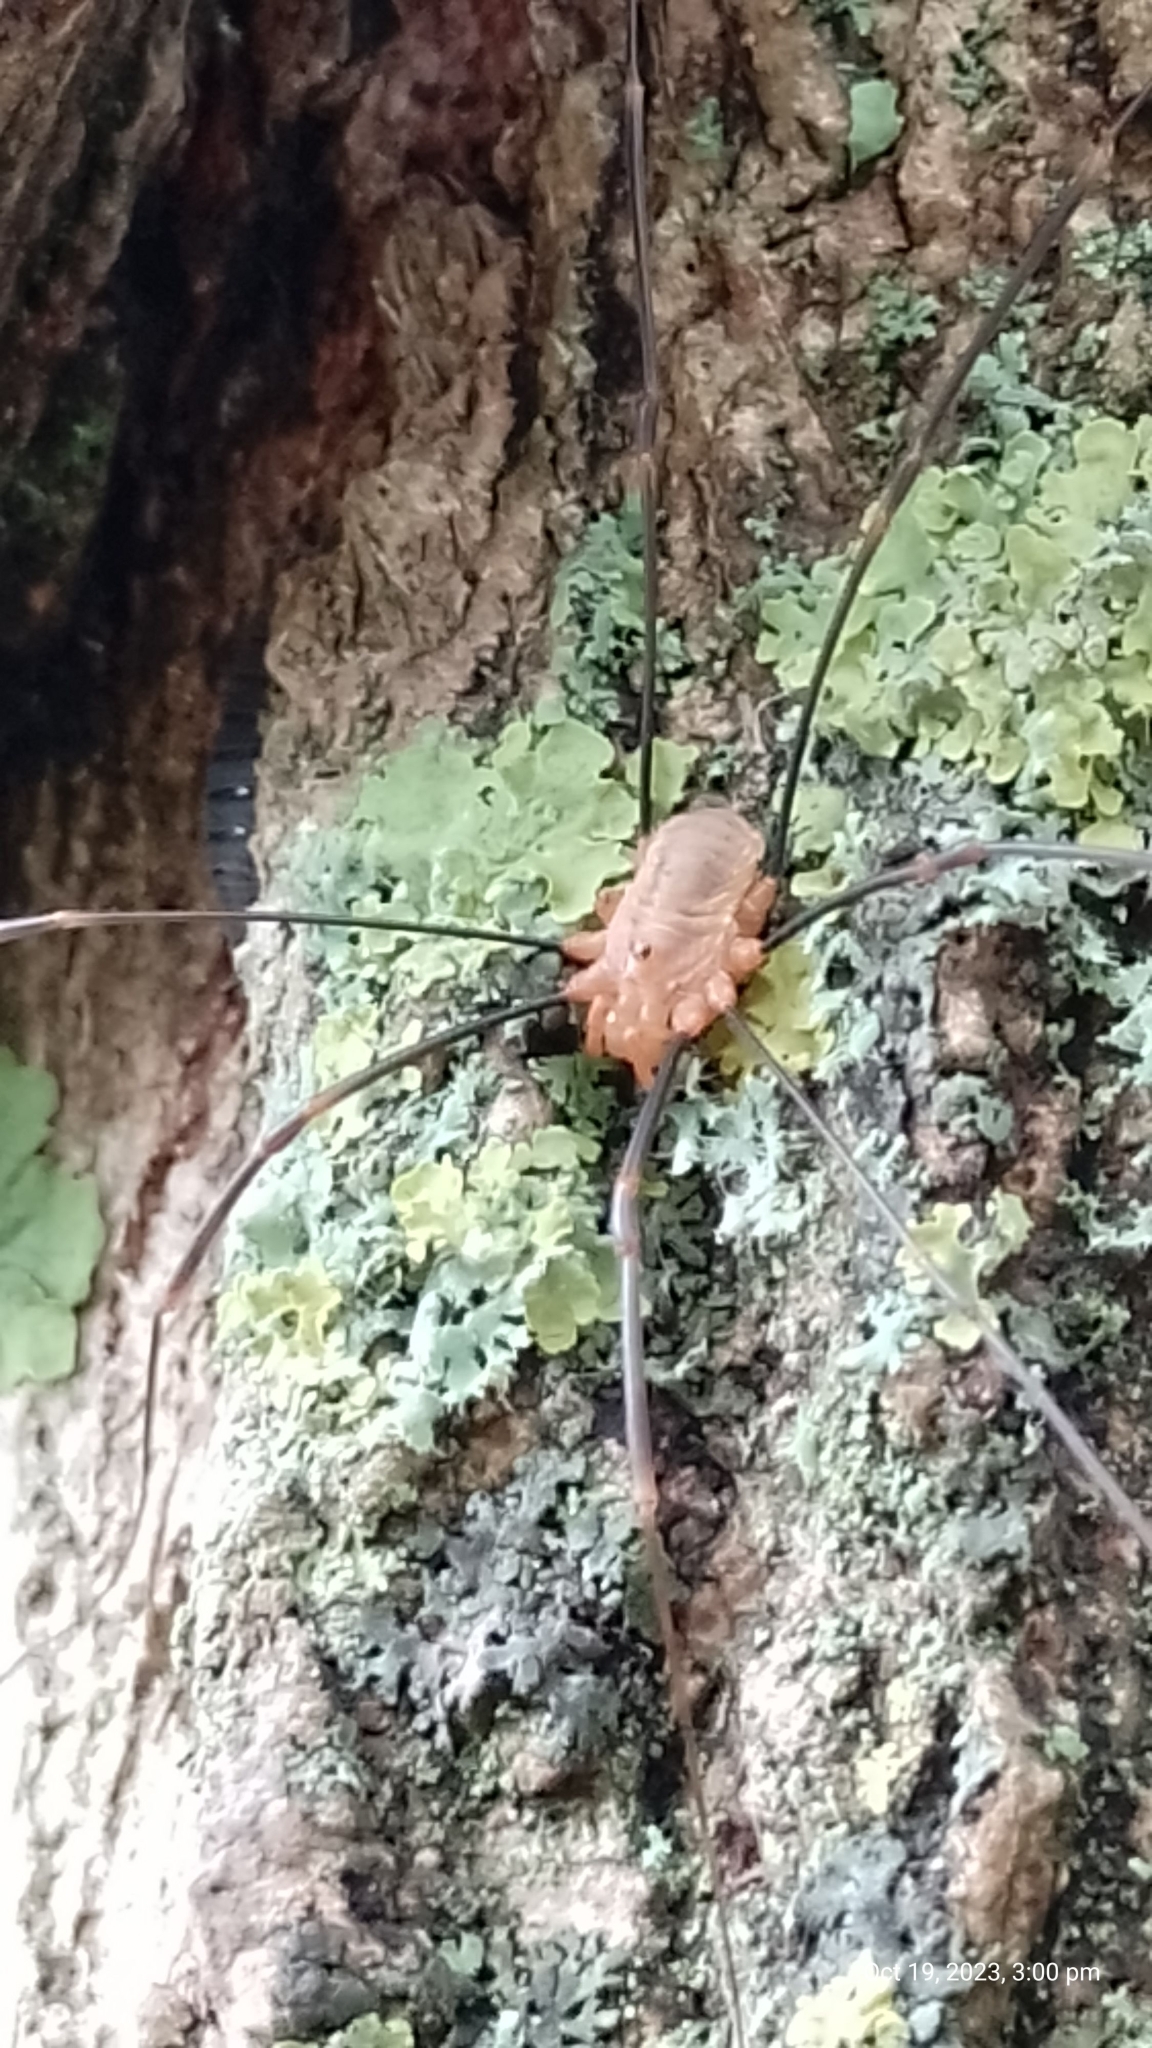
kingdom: Animalia
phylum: Arthropoda
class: Arachnida
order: Opiliones
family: Phalangiidae
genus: Opilio
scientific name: Opilio canestrinii
